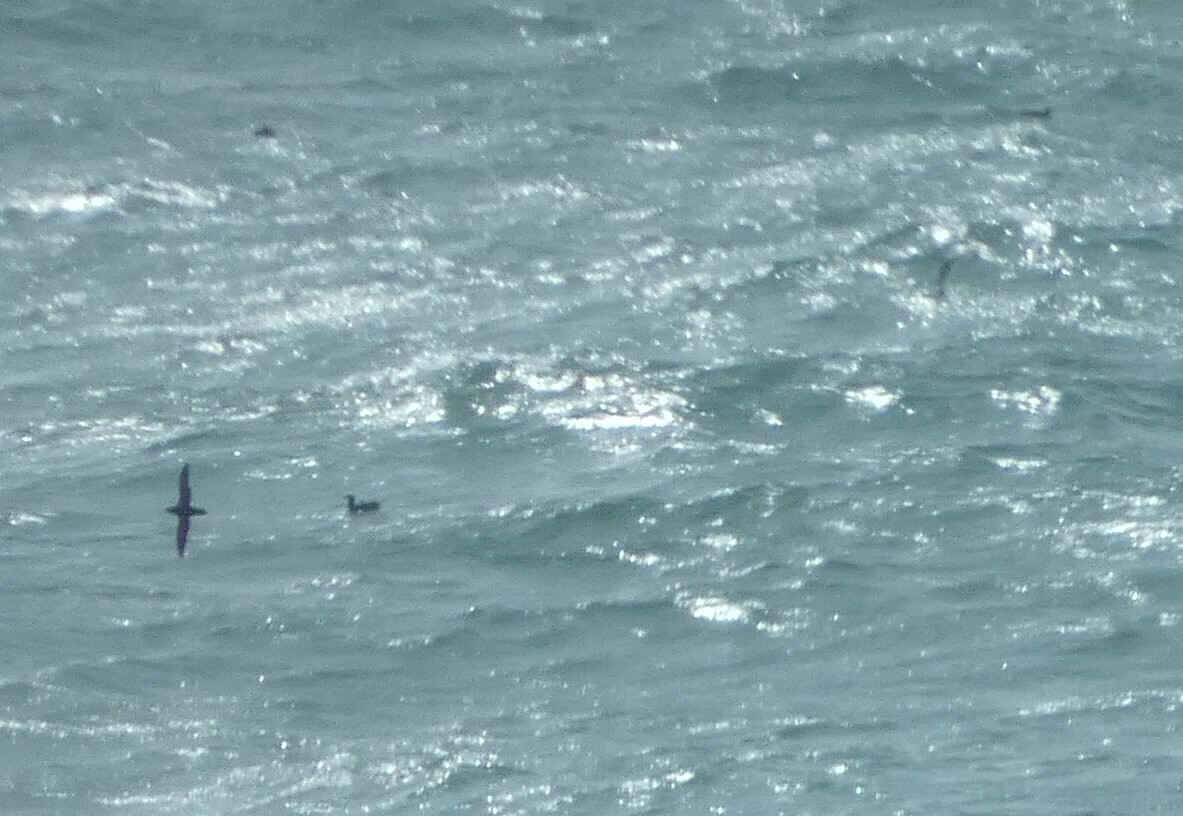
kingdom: Animalia
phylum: Chordata
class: Aves
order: Procellariiformes
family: Procellariidae
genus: Puffinus
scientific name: Puffinus puffinus
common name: Manx shearwater
